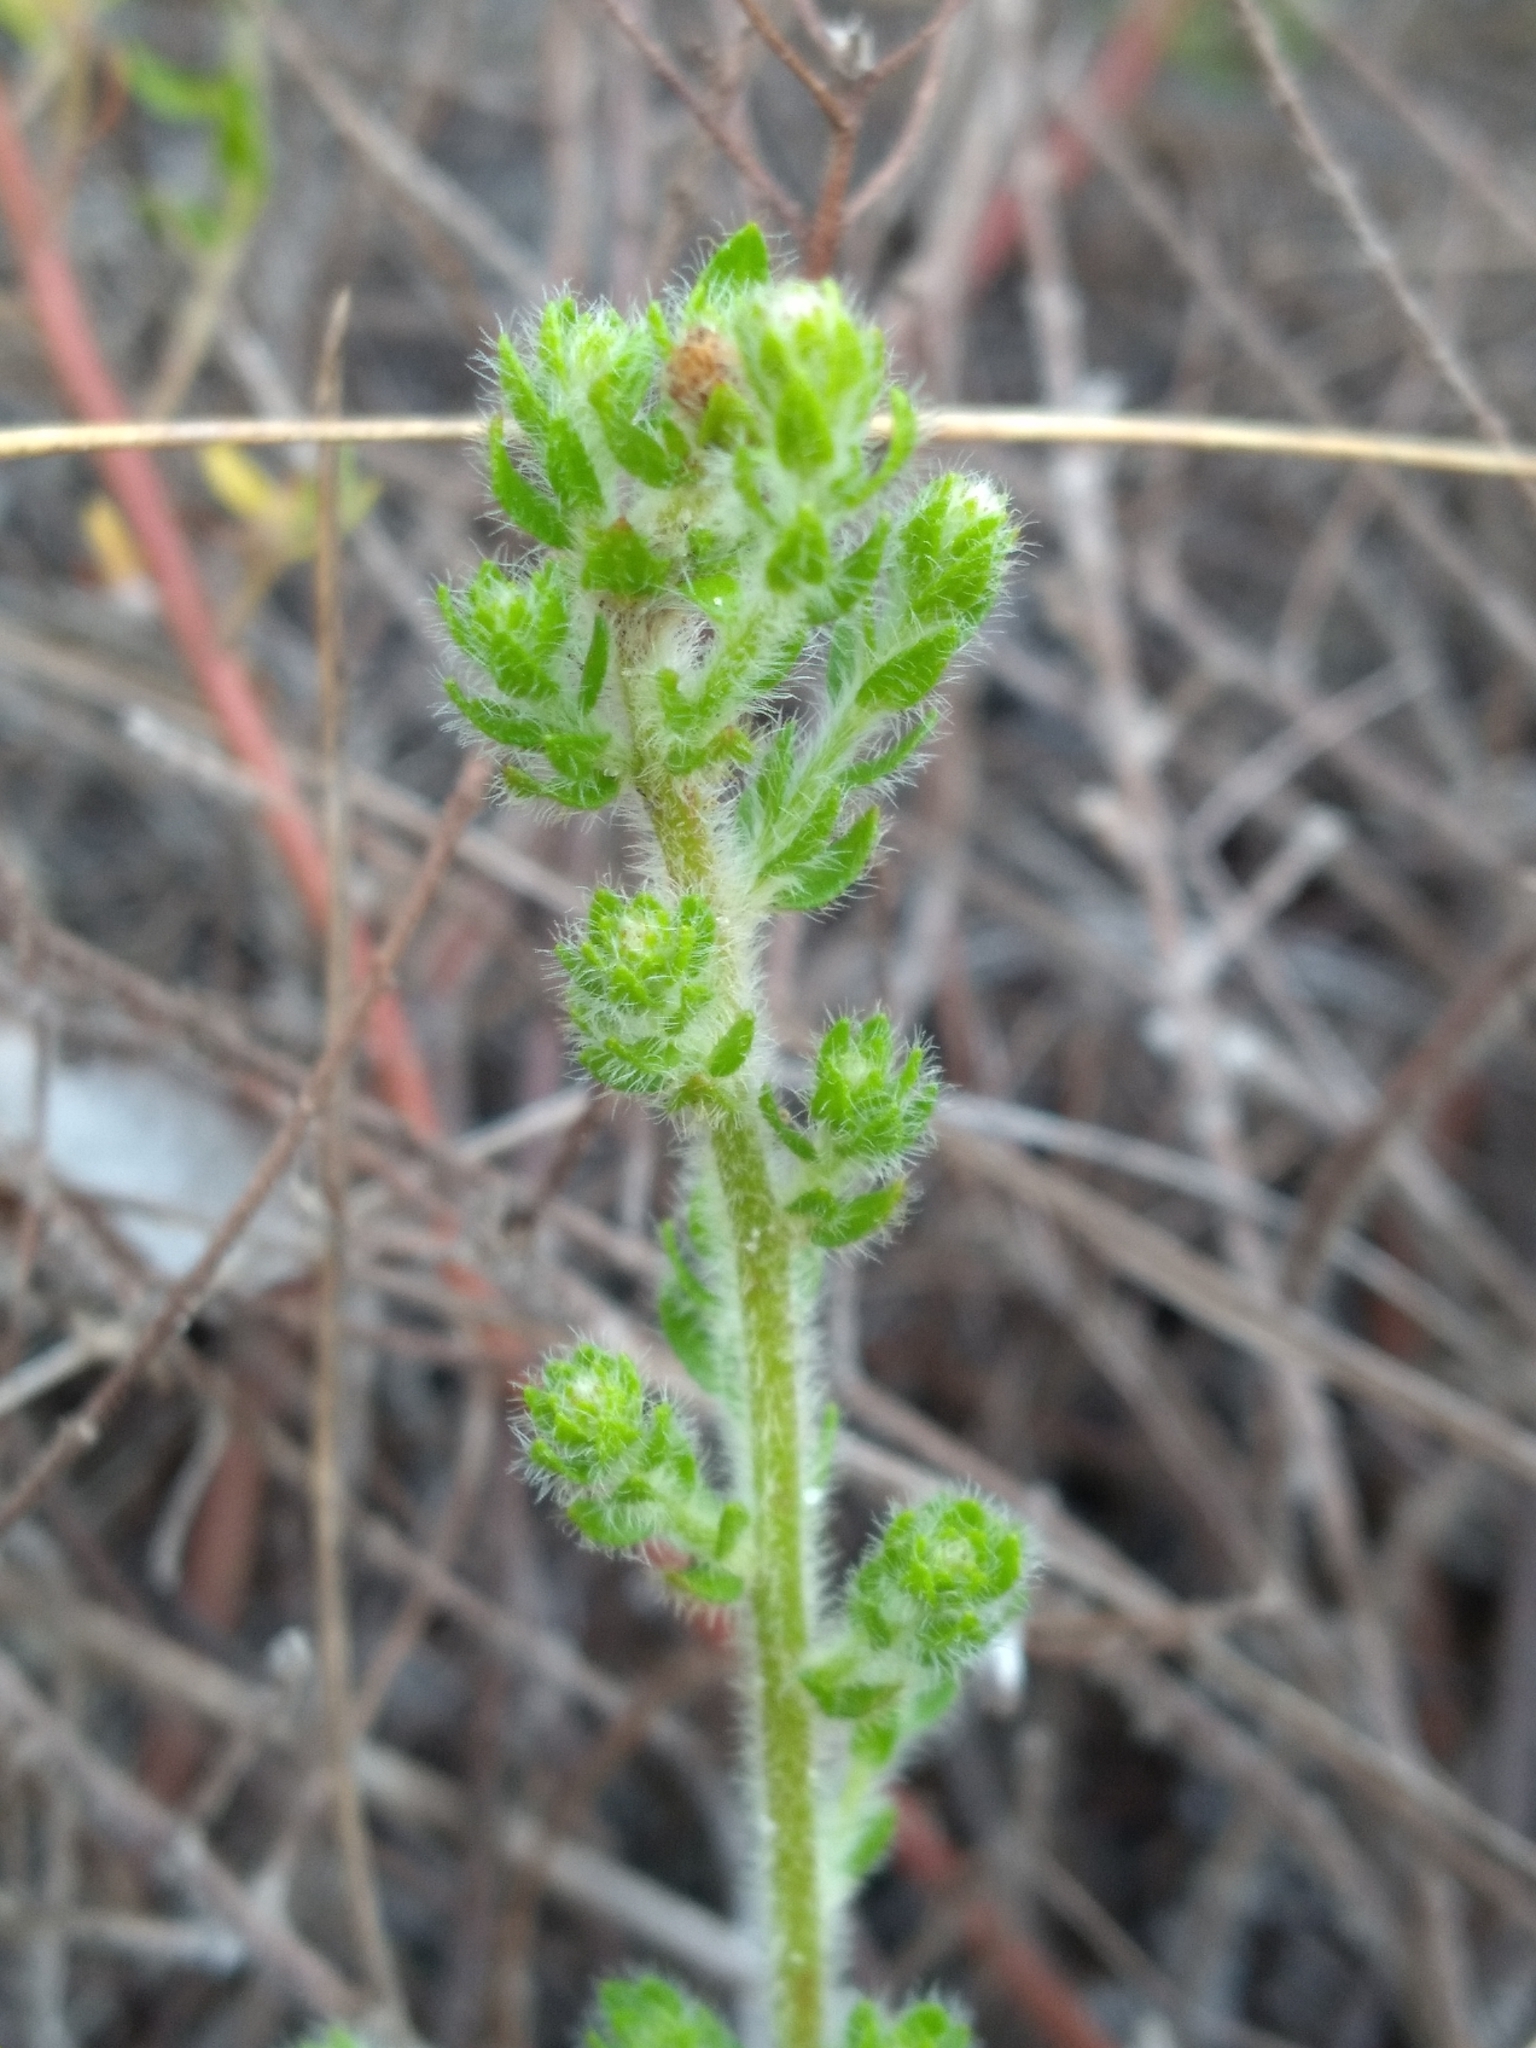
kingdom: Plantae
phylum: Tracheophyta
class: Magnoliopsida
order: Malvales
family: Cistaceae
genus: Lechea
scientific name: Lechea divaricata
